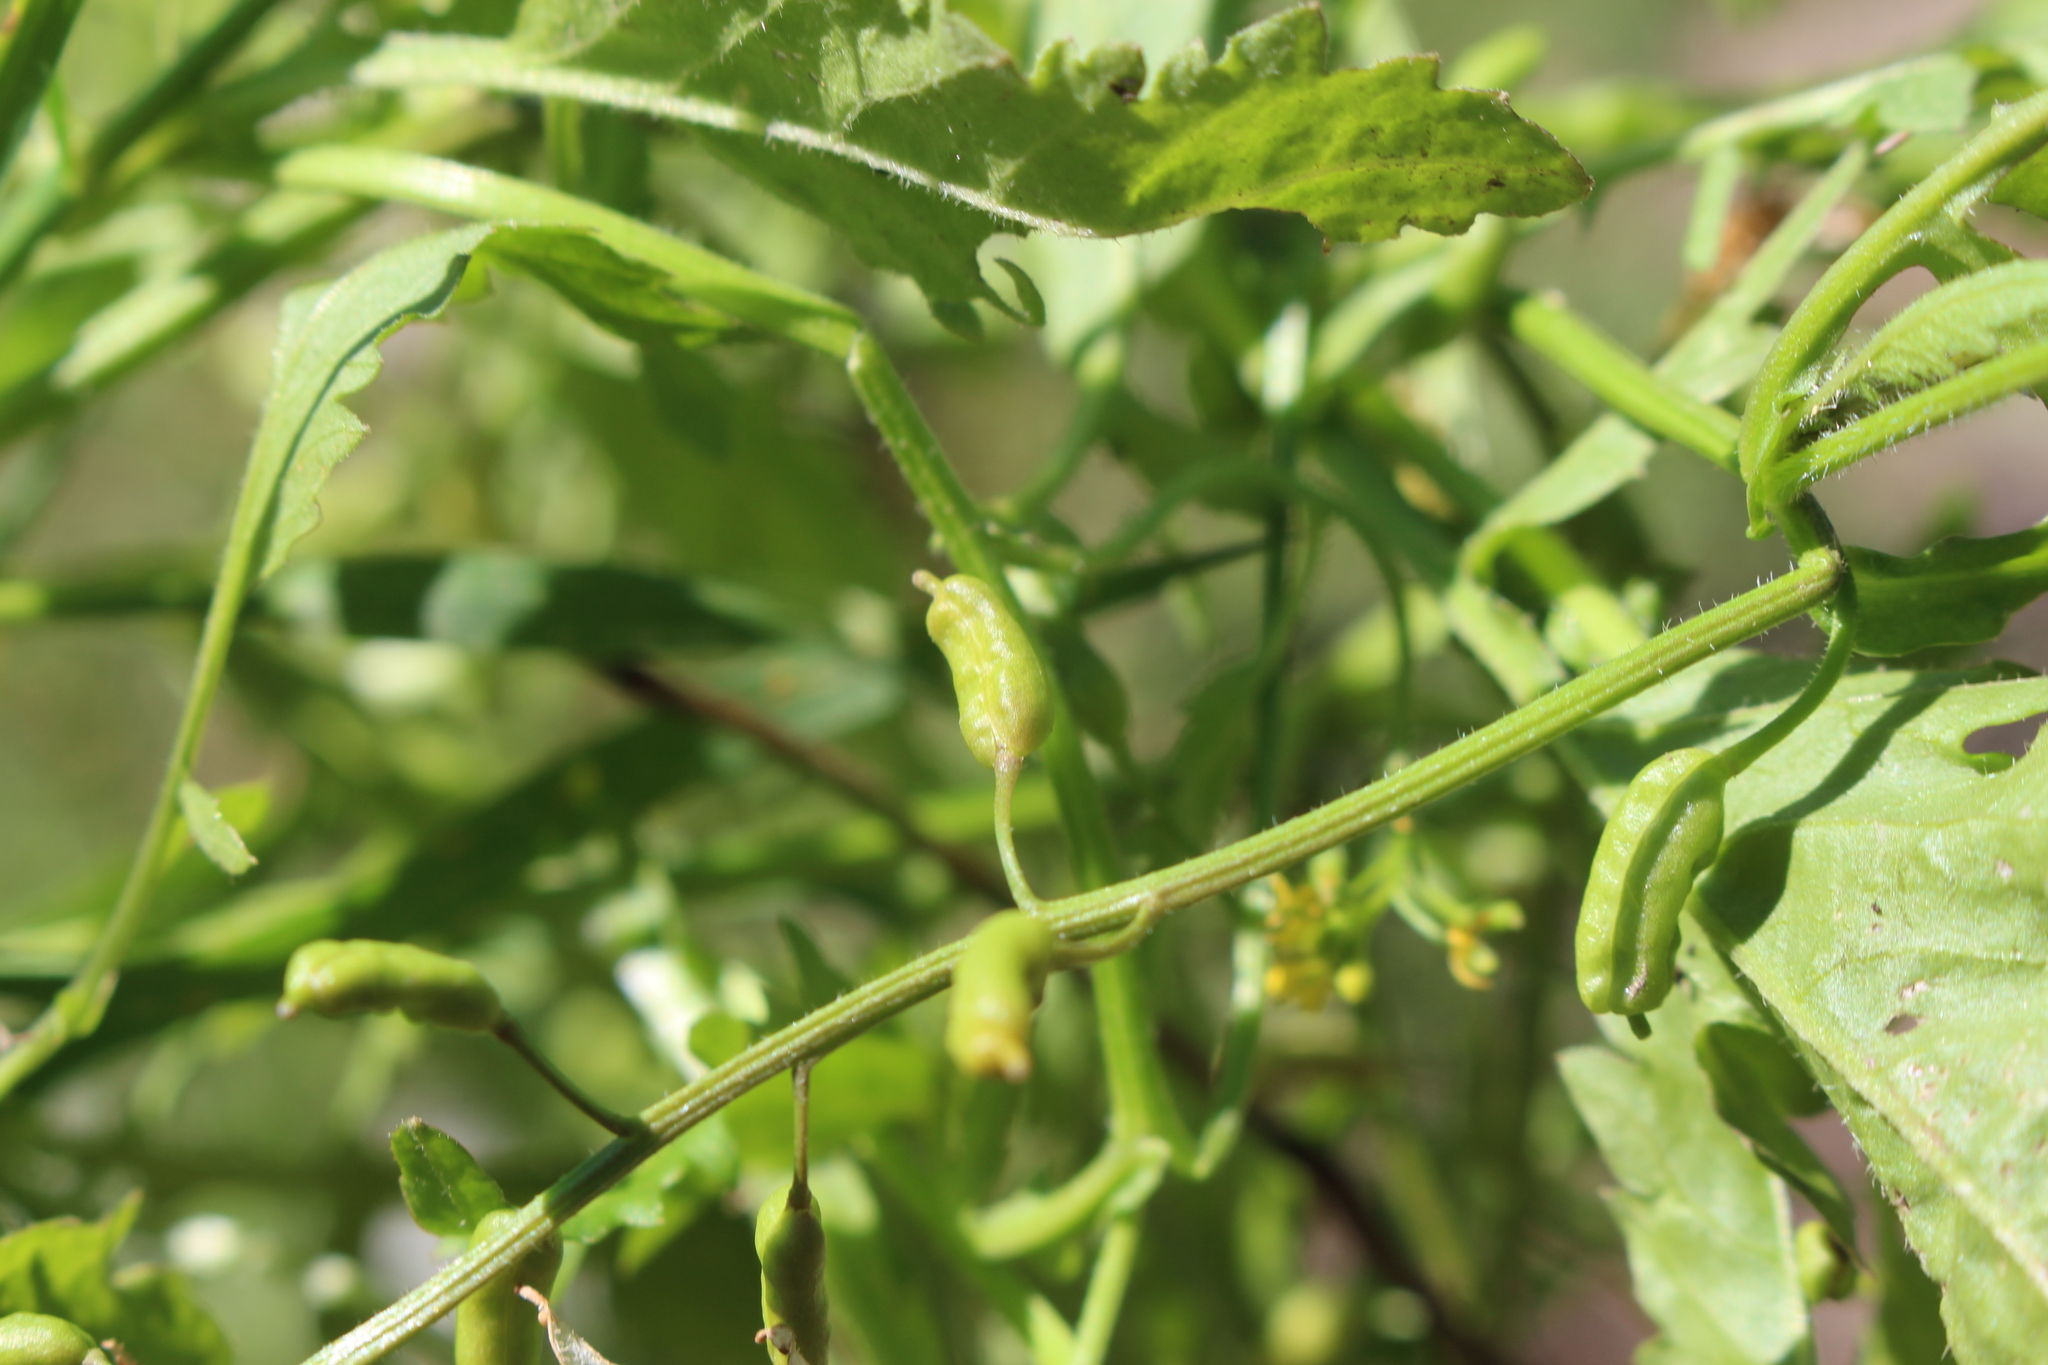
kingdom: Plantae
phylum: Tracheophyta
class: Magnoliopsida
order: Brassicales
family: Brassicaceae
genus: Rorippa
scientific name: Rorippa palustris
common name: Marsh yellow-cress
